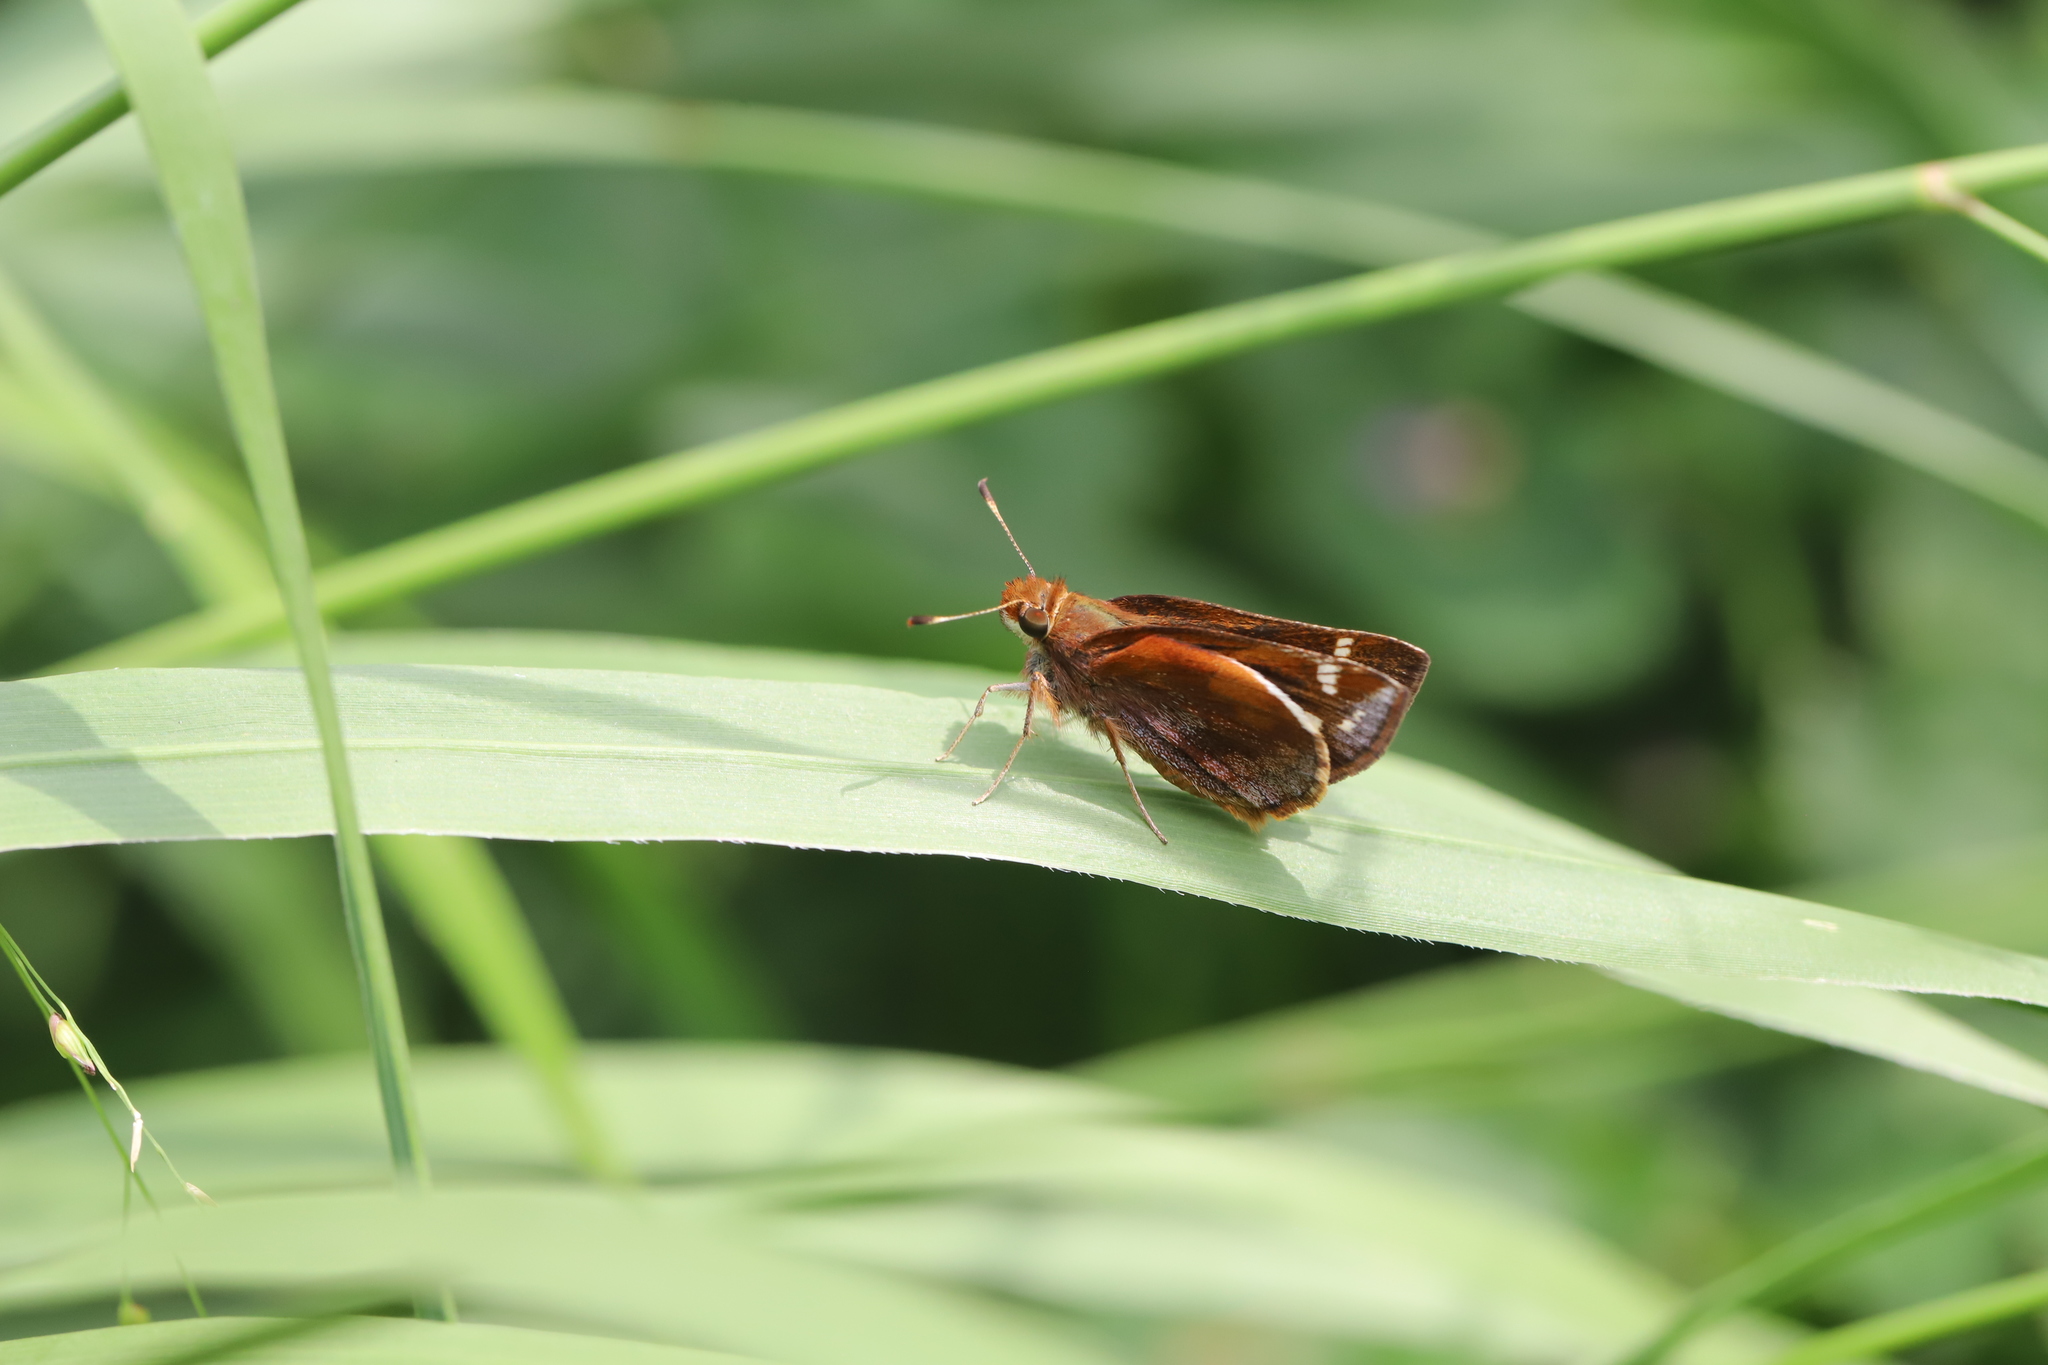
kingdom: Animalia
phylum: Arthropoda
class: Insecta
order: Lepidoptera
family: Hesperiidae
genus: Lon
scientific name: Lon zabulon
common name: Zabulon skipper
